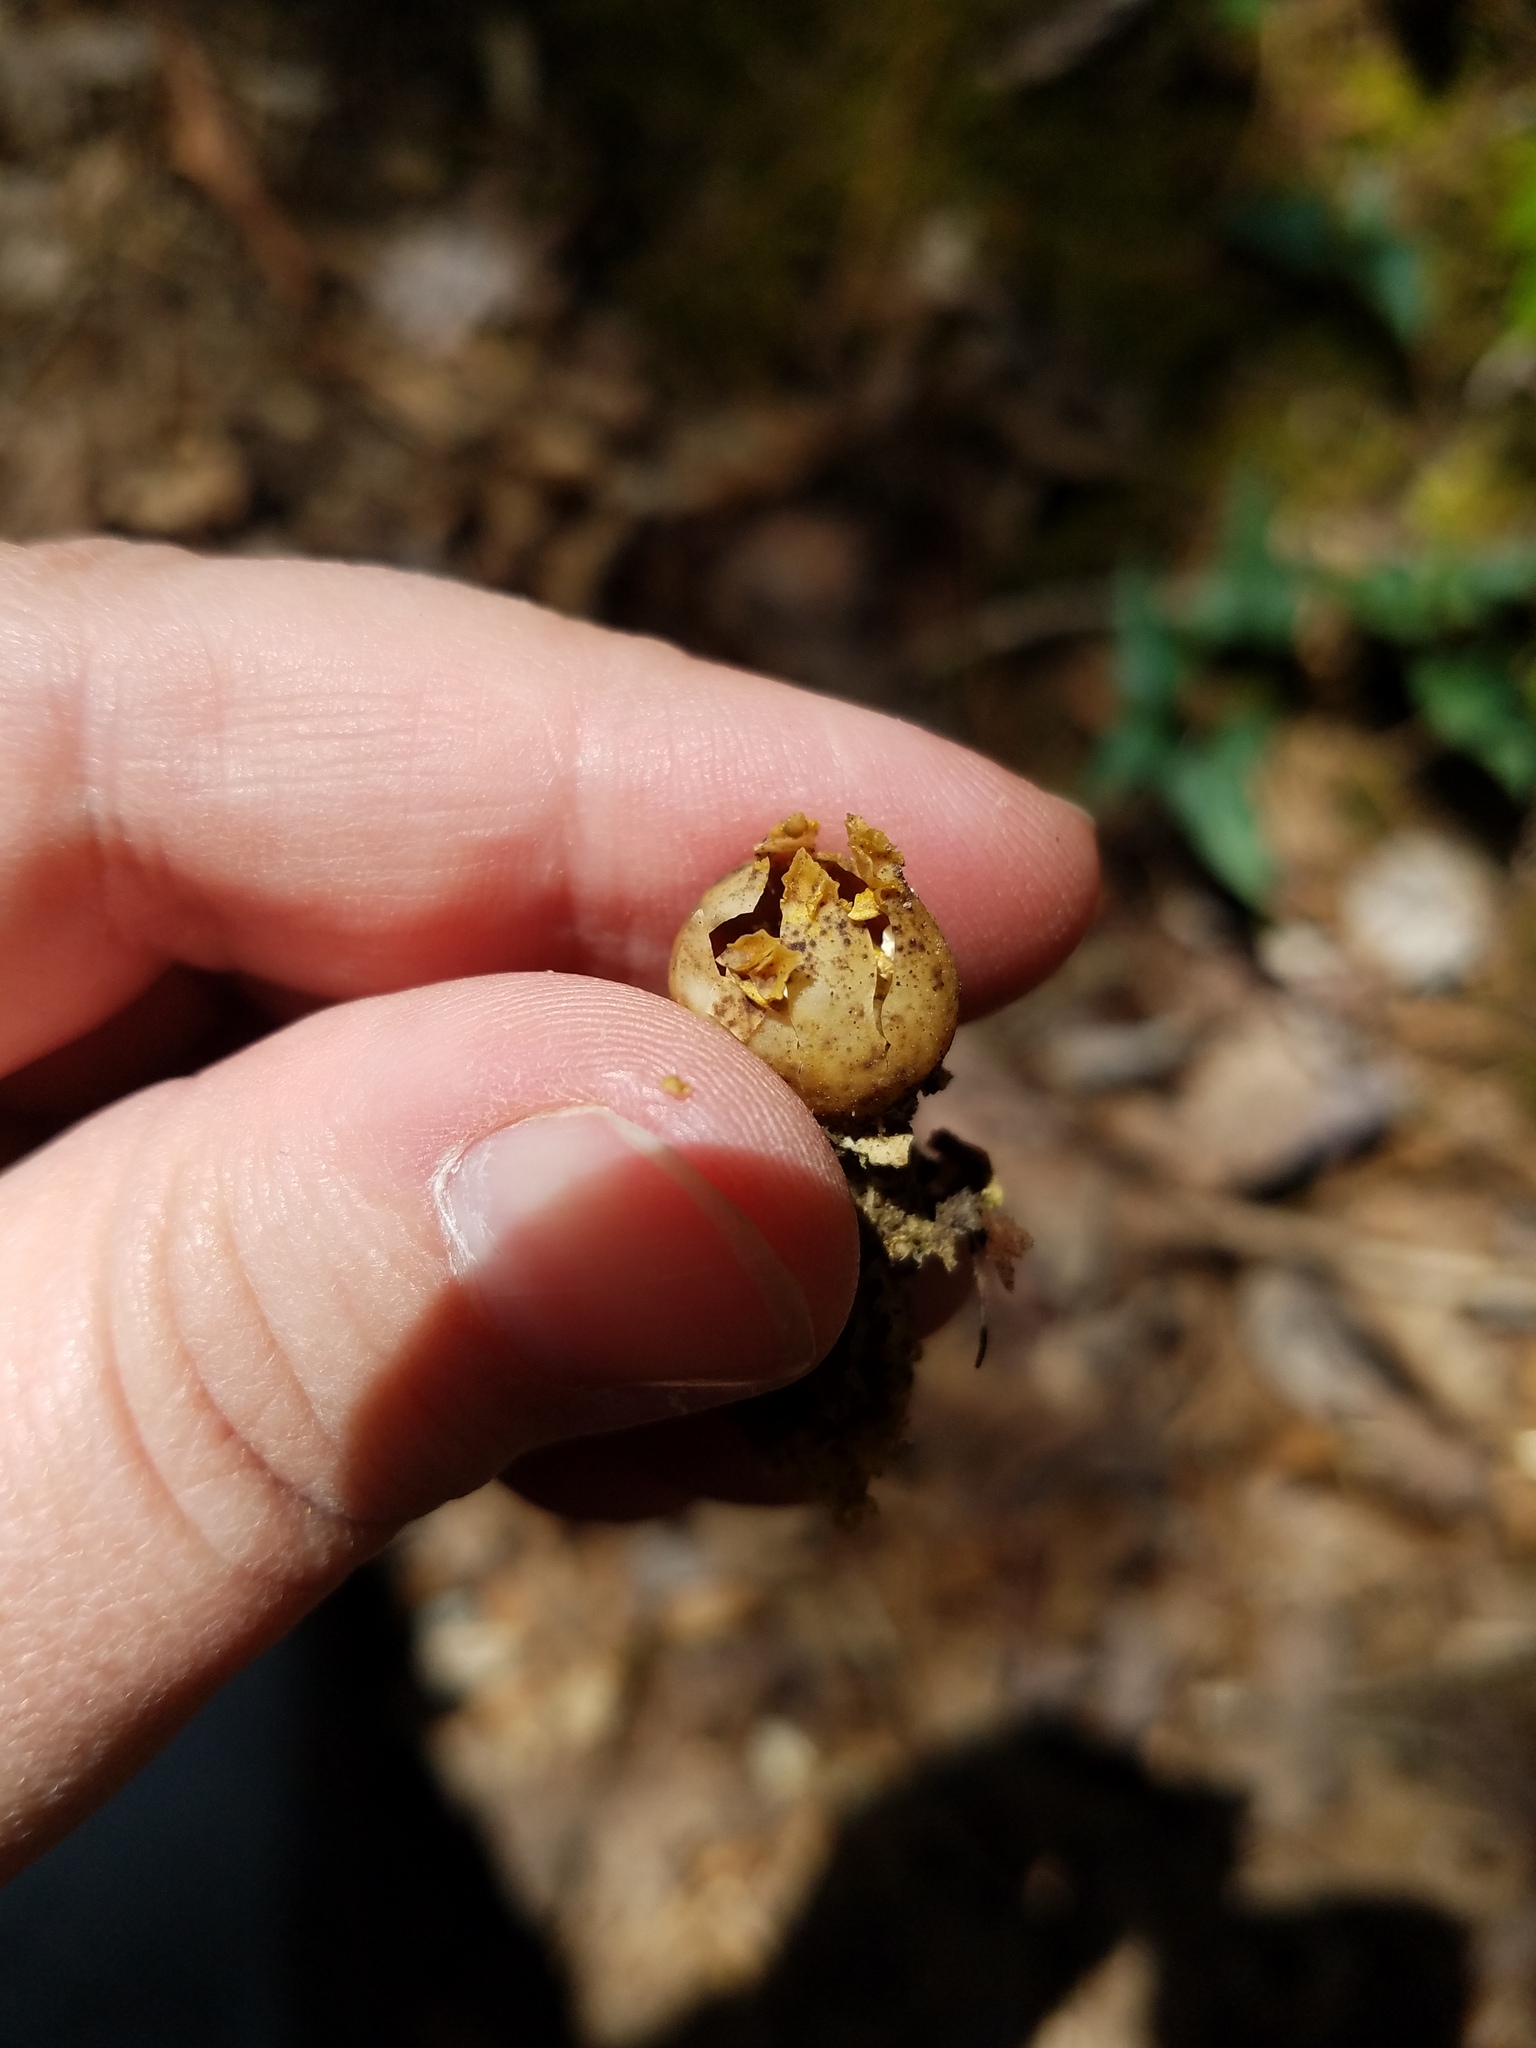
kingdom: Fungi
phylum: Basidiomycota
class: Agaricomycetes
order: Boletales
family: Calostomataceae
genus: Calostoma
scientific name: Calostoma lutescens
